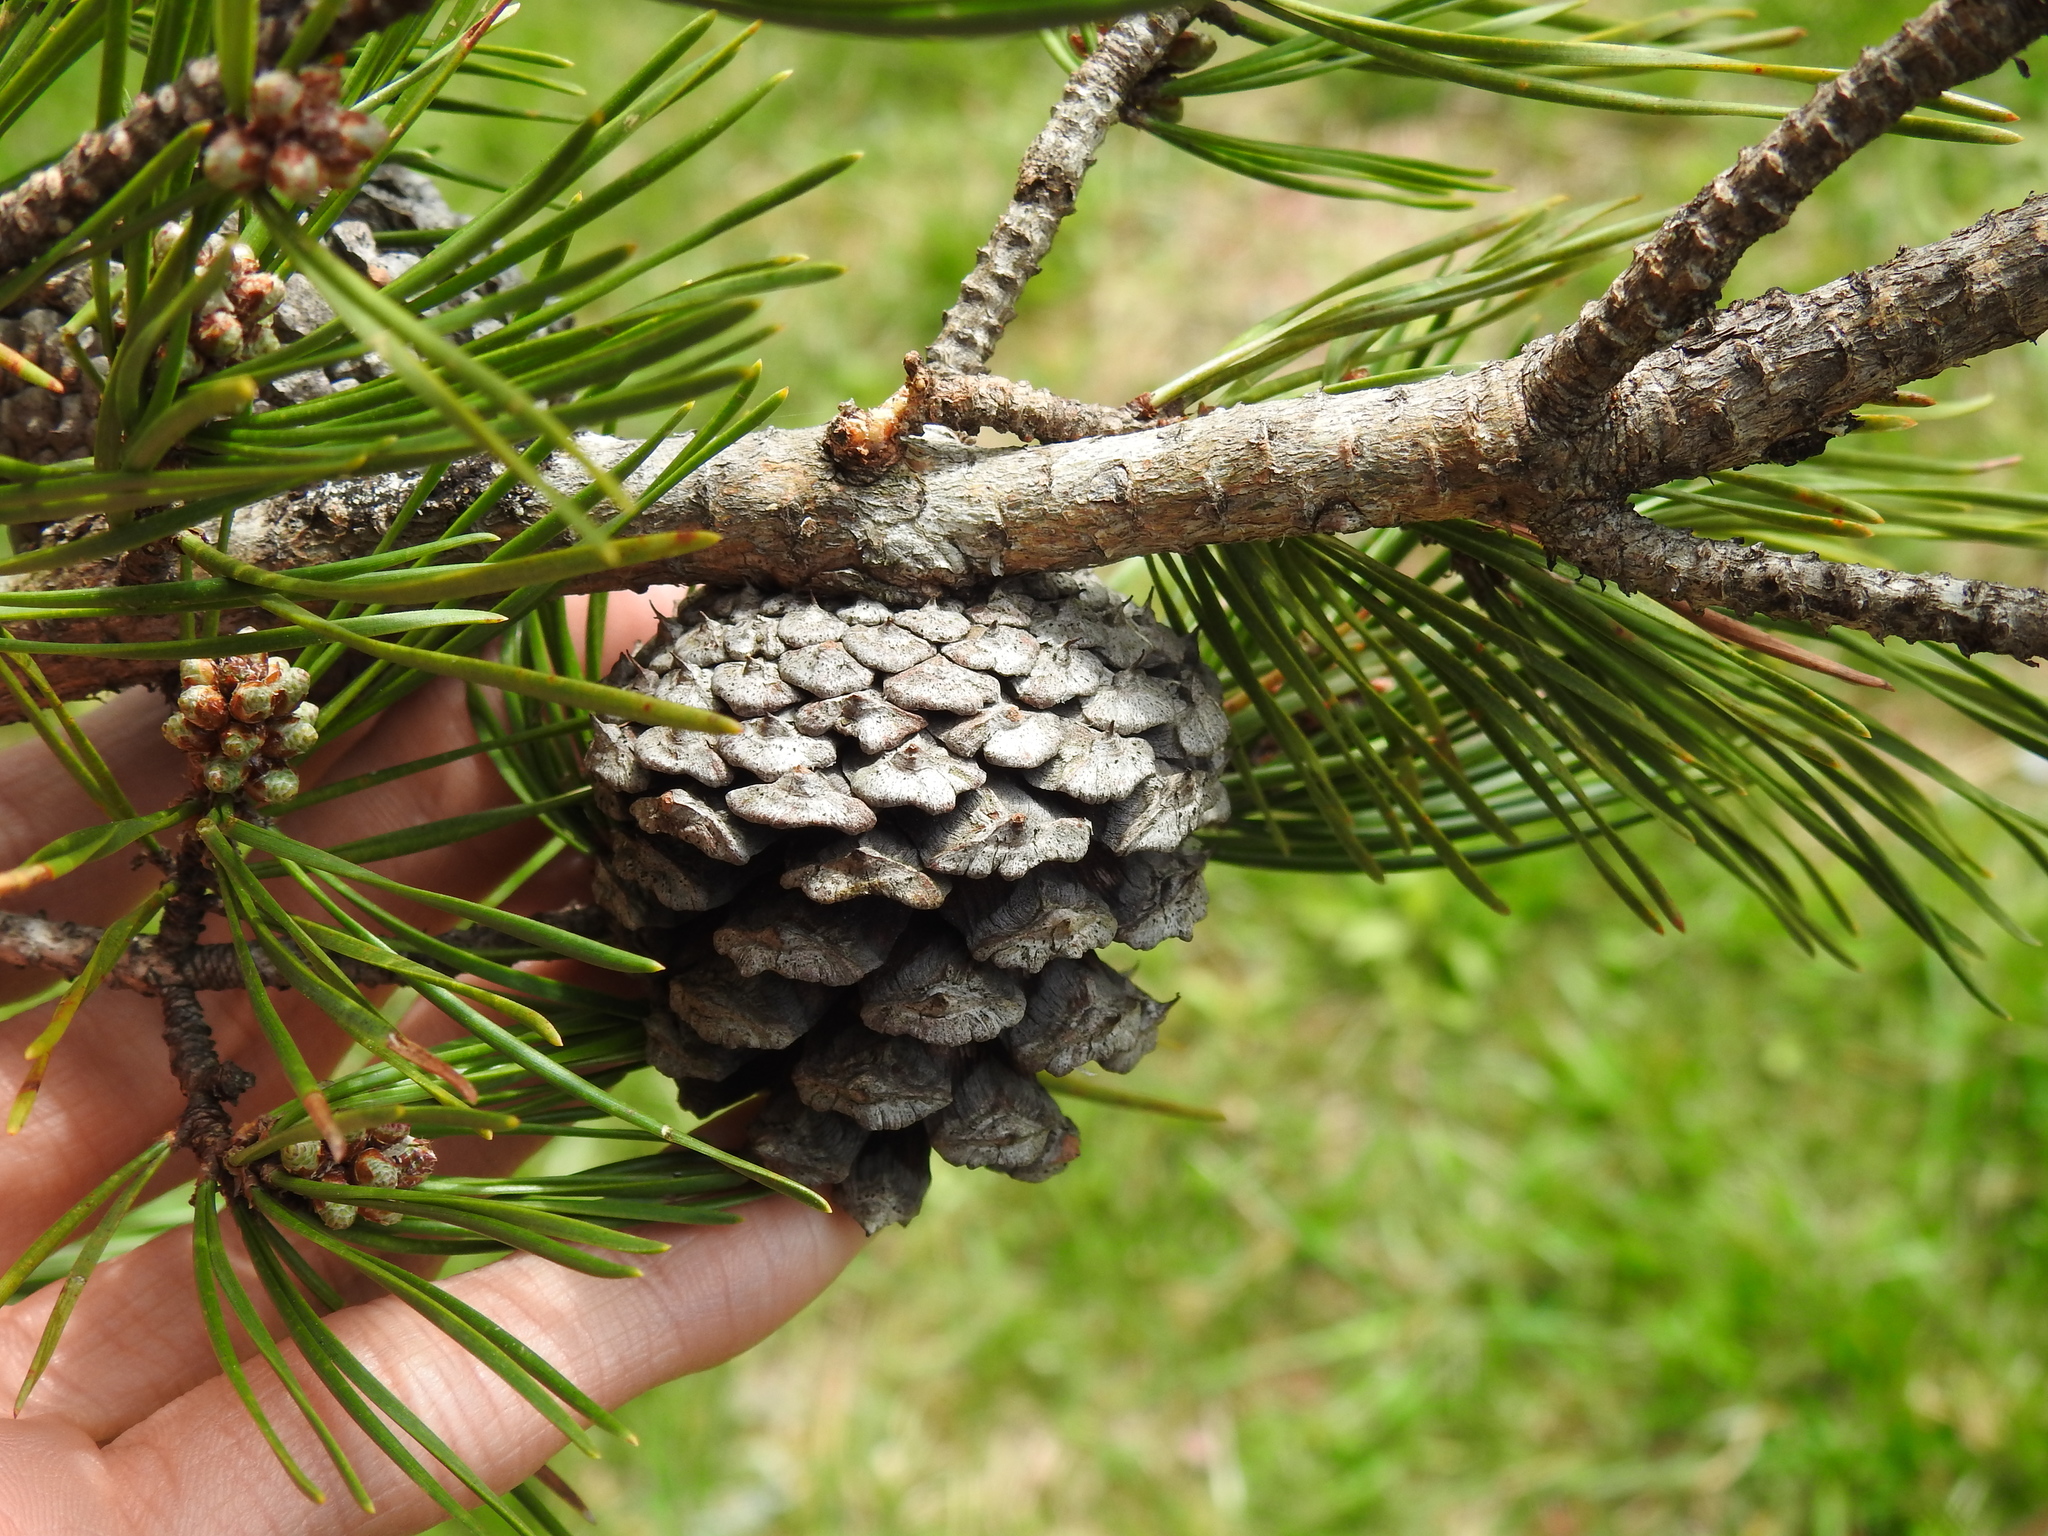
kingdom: Plantae
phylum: Tracheophyta
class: Pinopsida
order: Pinales
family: Pinaceae
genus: Pinus
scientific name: Pinus virginiana
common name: Scrub pine
